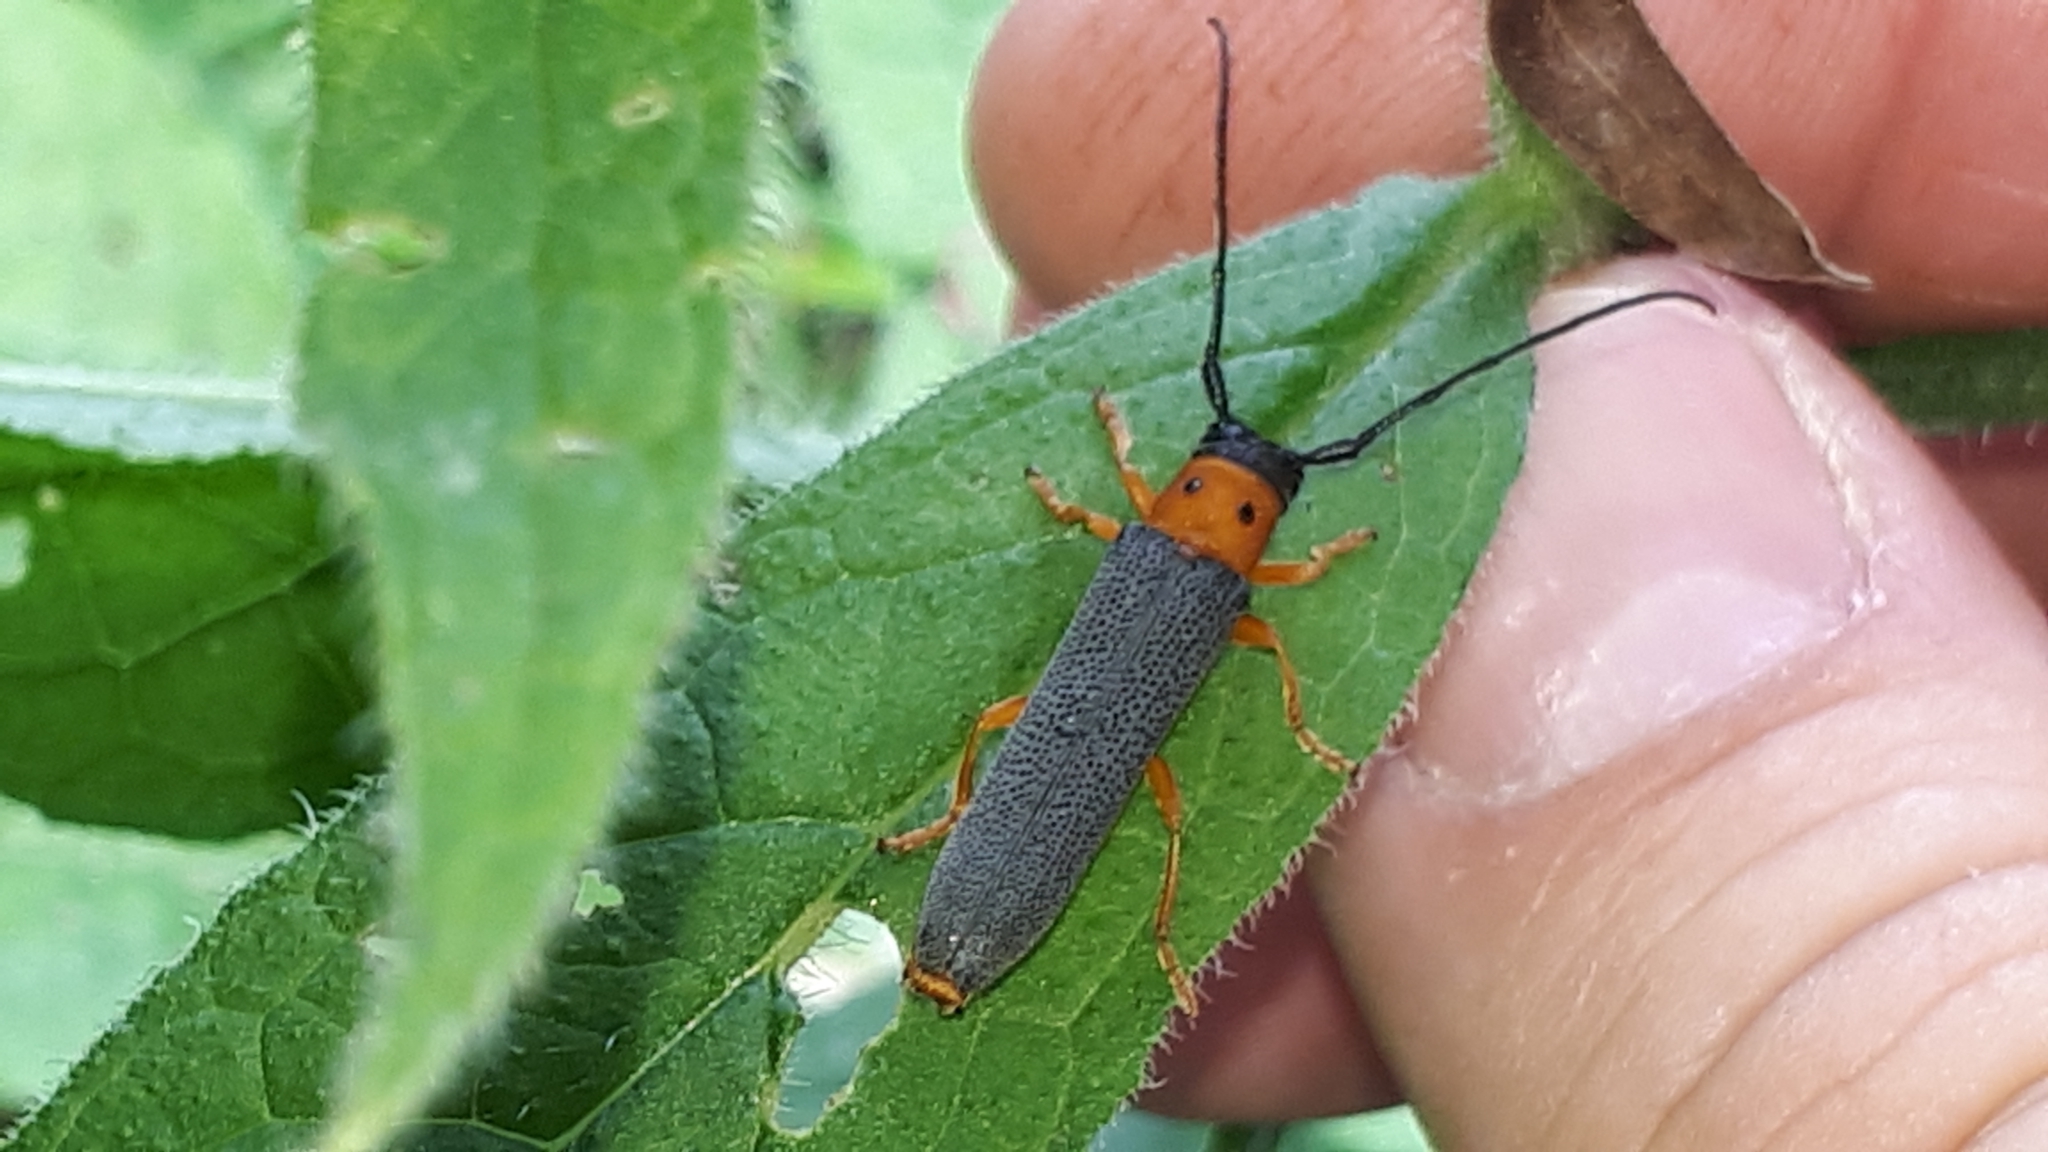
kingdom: Animalia
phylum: Arthropoda
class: Insecta
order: Coleoptera
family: Cerambycidae
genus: Oberea
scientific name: Oberea oculata
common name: Eyed longhorn beetle
